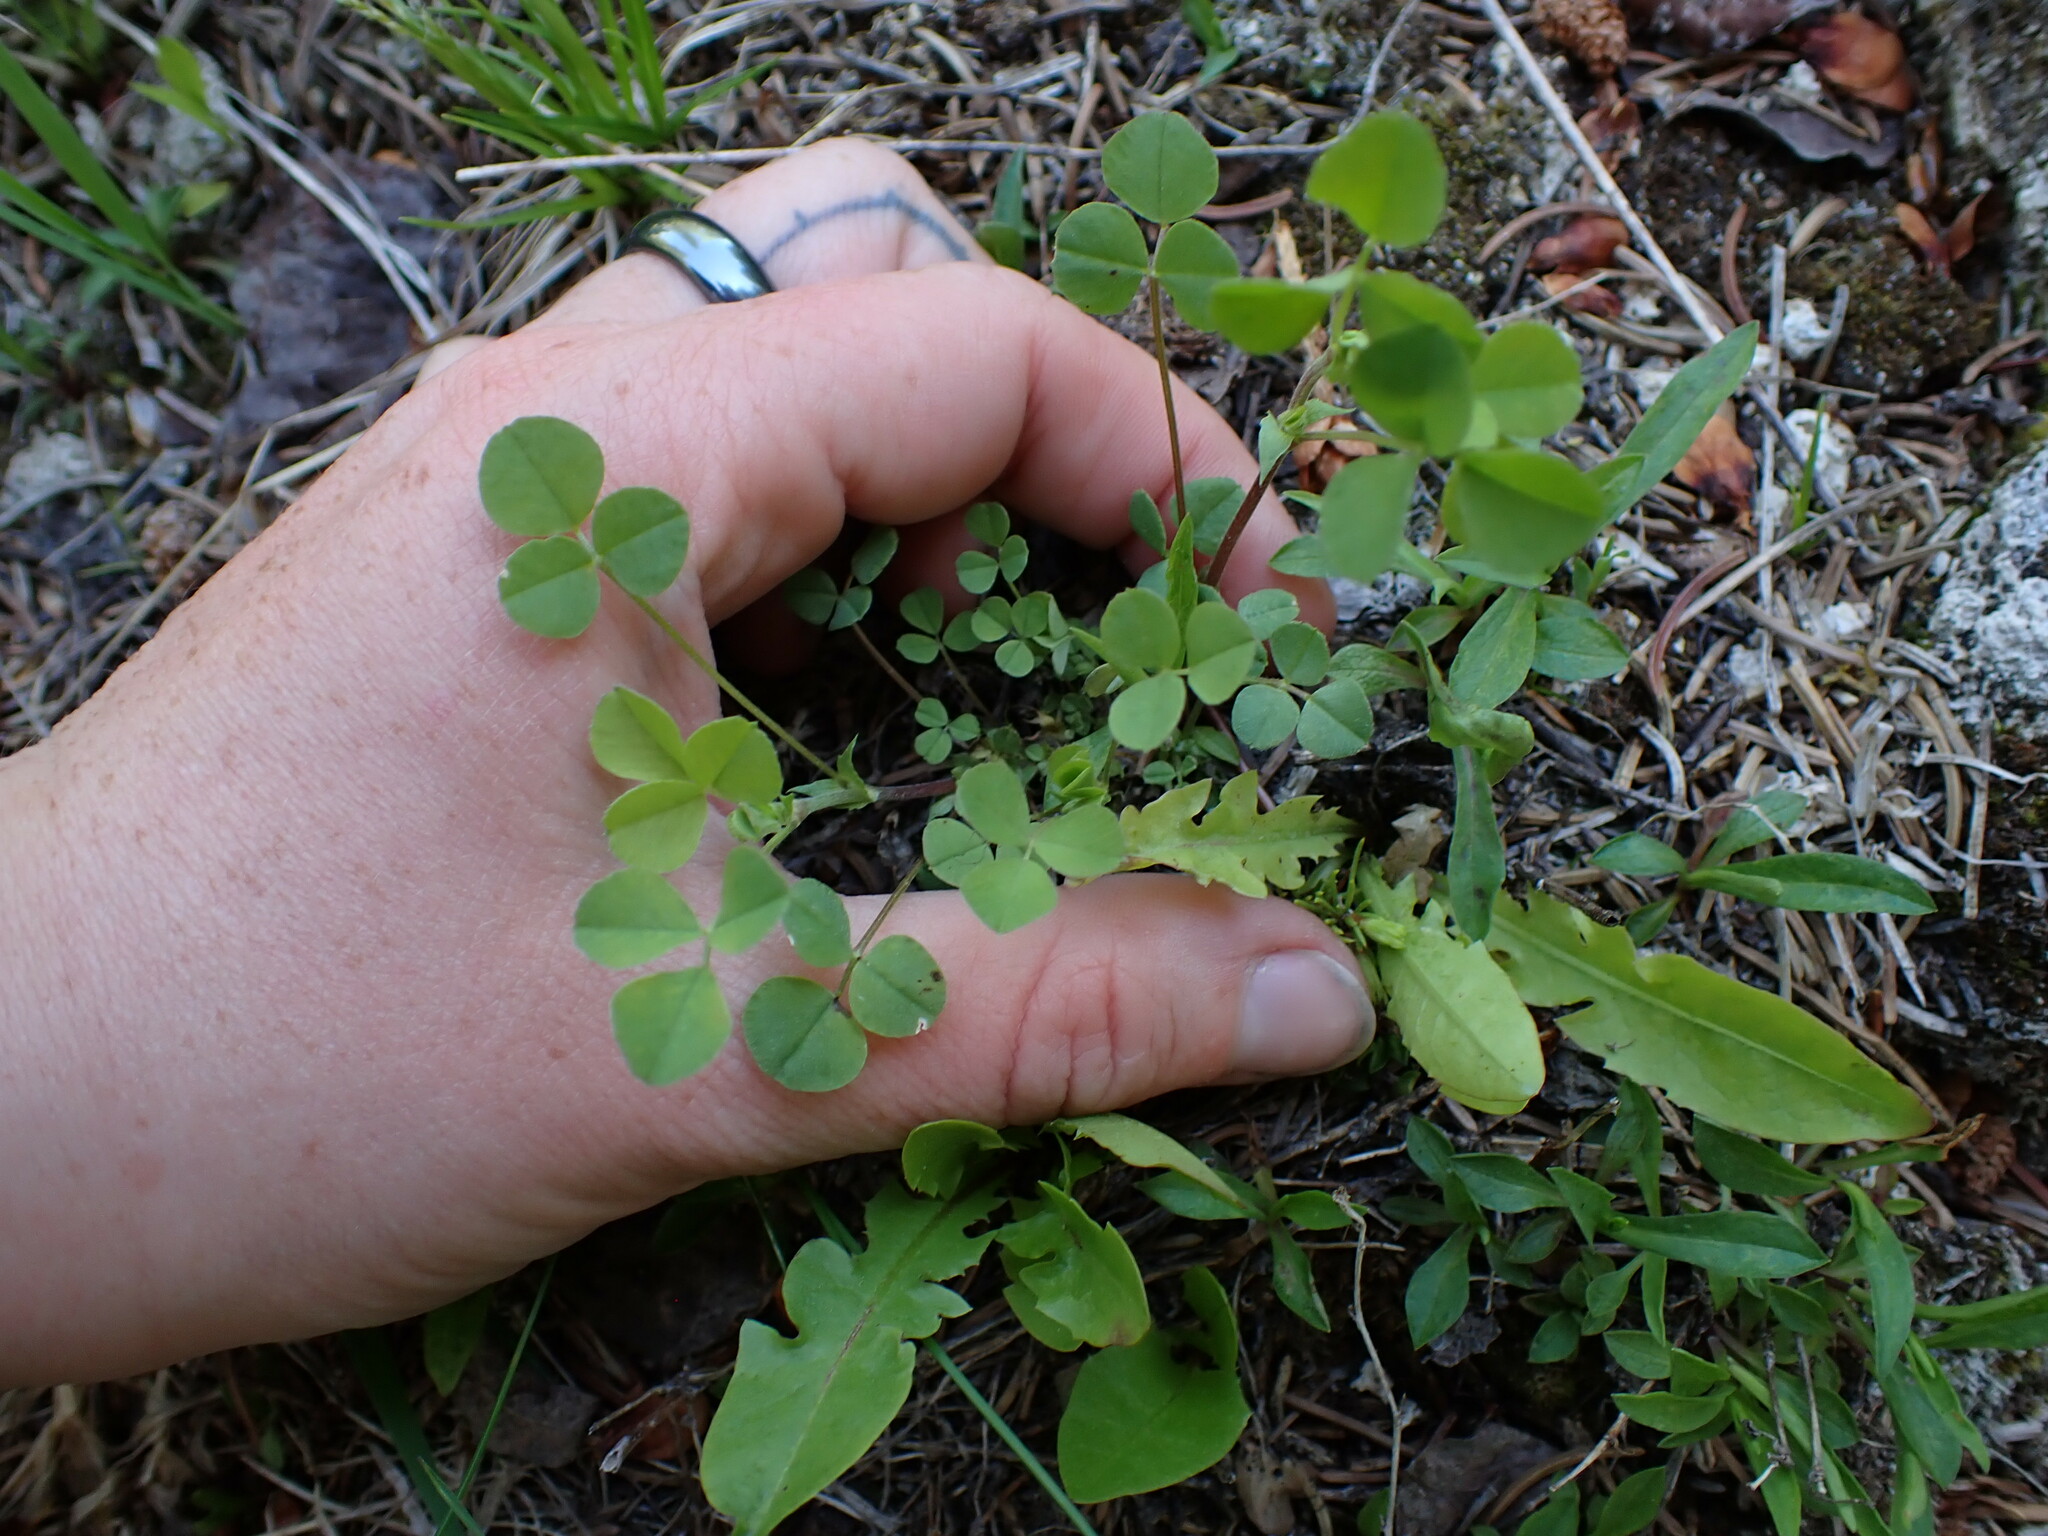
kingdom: Plantae
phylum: Tracheophyta
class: Magnoliopsida
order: Fabales
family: Fabaceae
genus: Medicago
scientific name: Medicago lupulina
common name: Black medick
